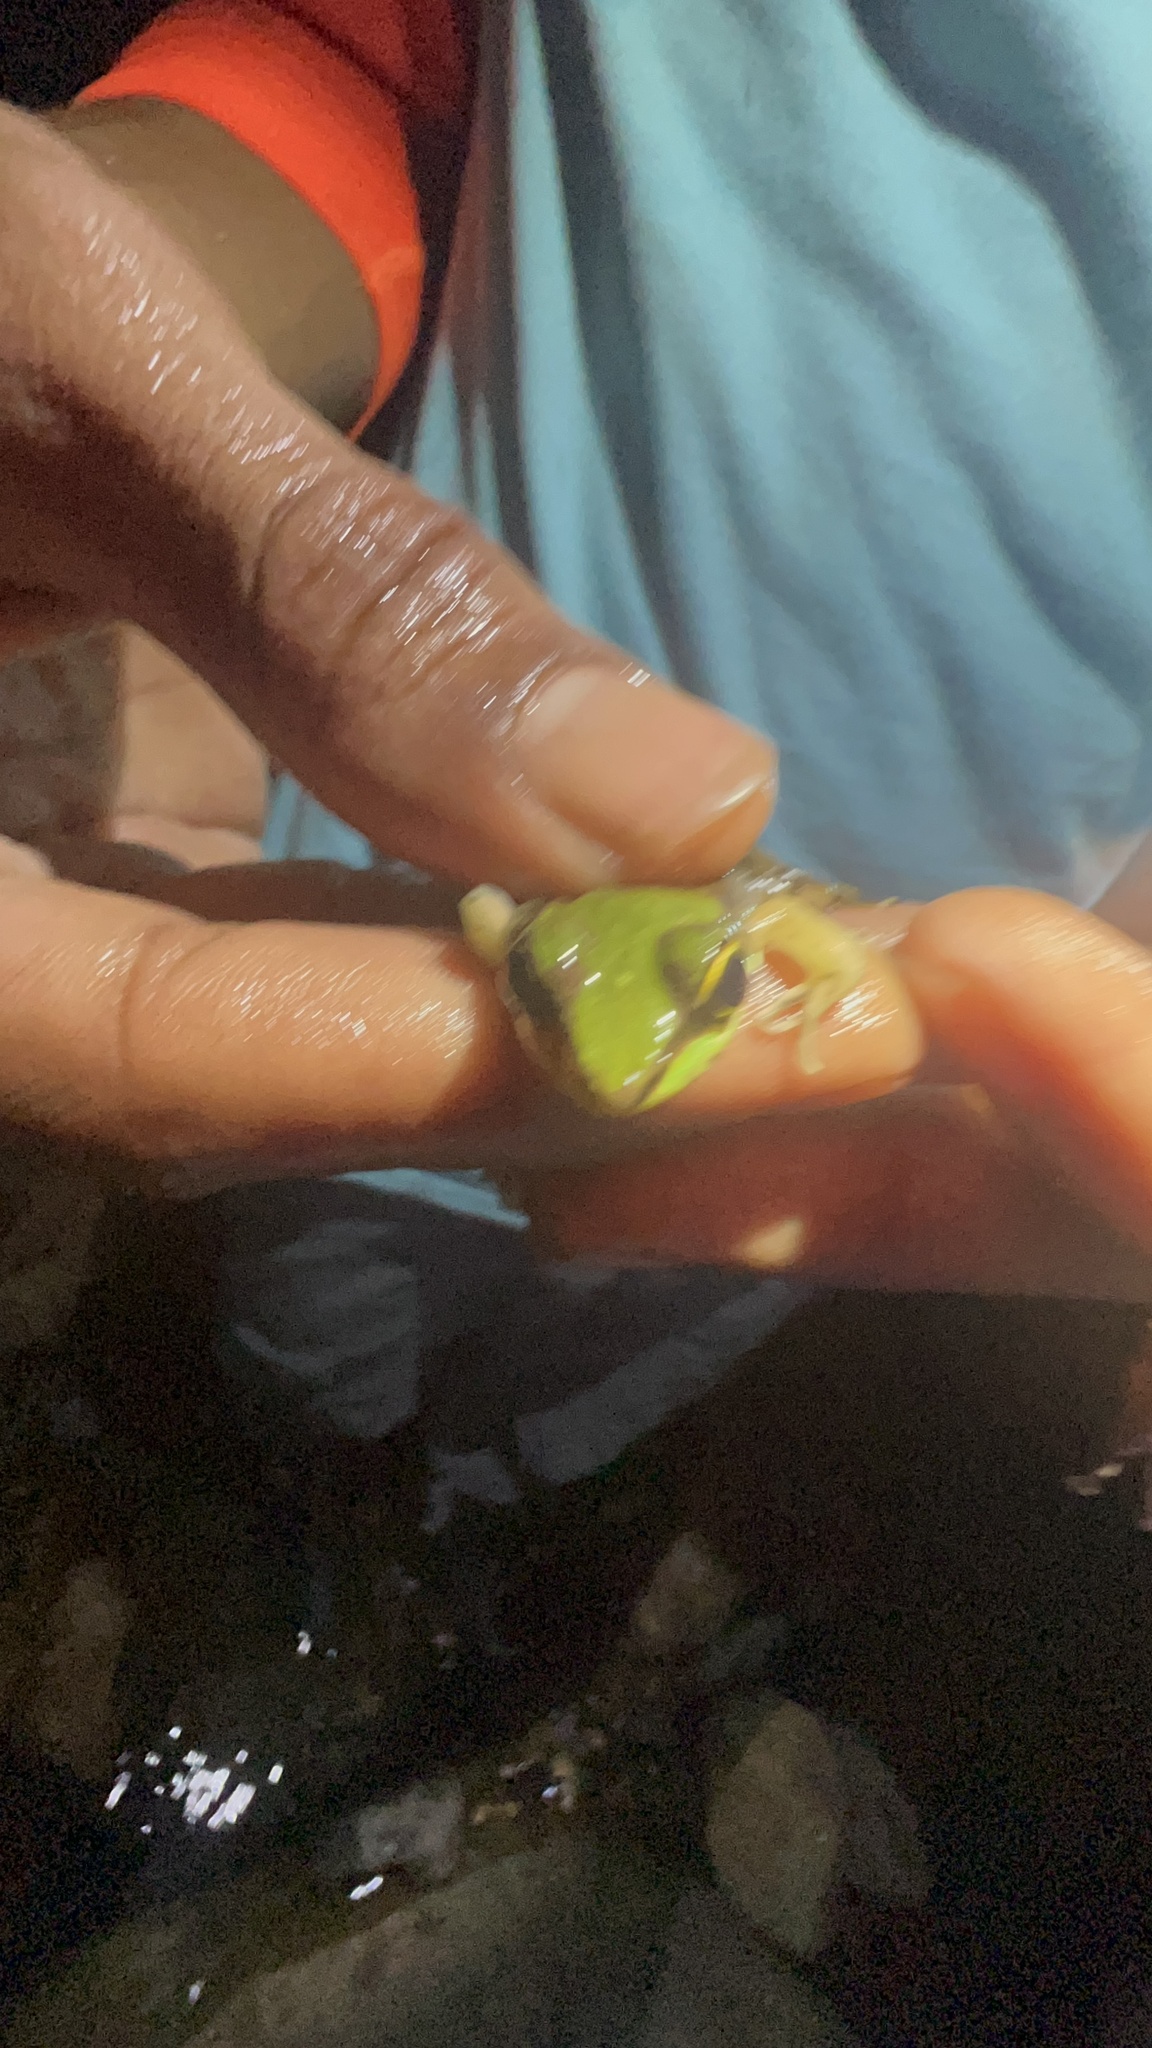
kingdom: Animalia
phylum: Chordata
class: Amphibia
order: Anura
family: Ranidae
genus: Lithobates
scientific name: Lithobates vaillanti
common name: Vaillant's frog
